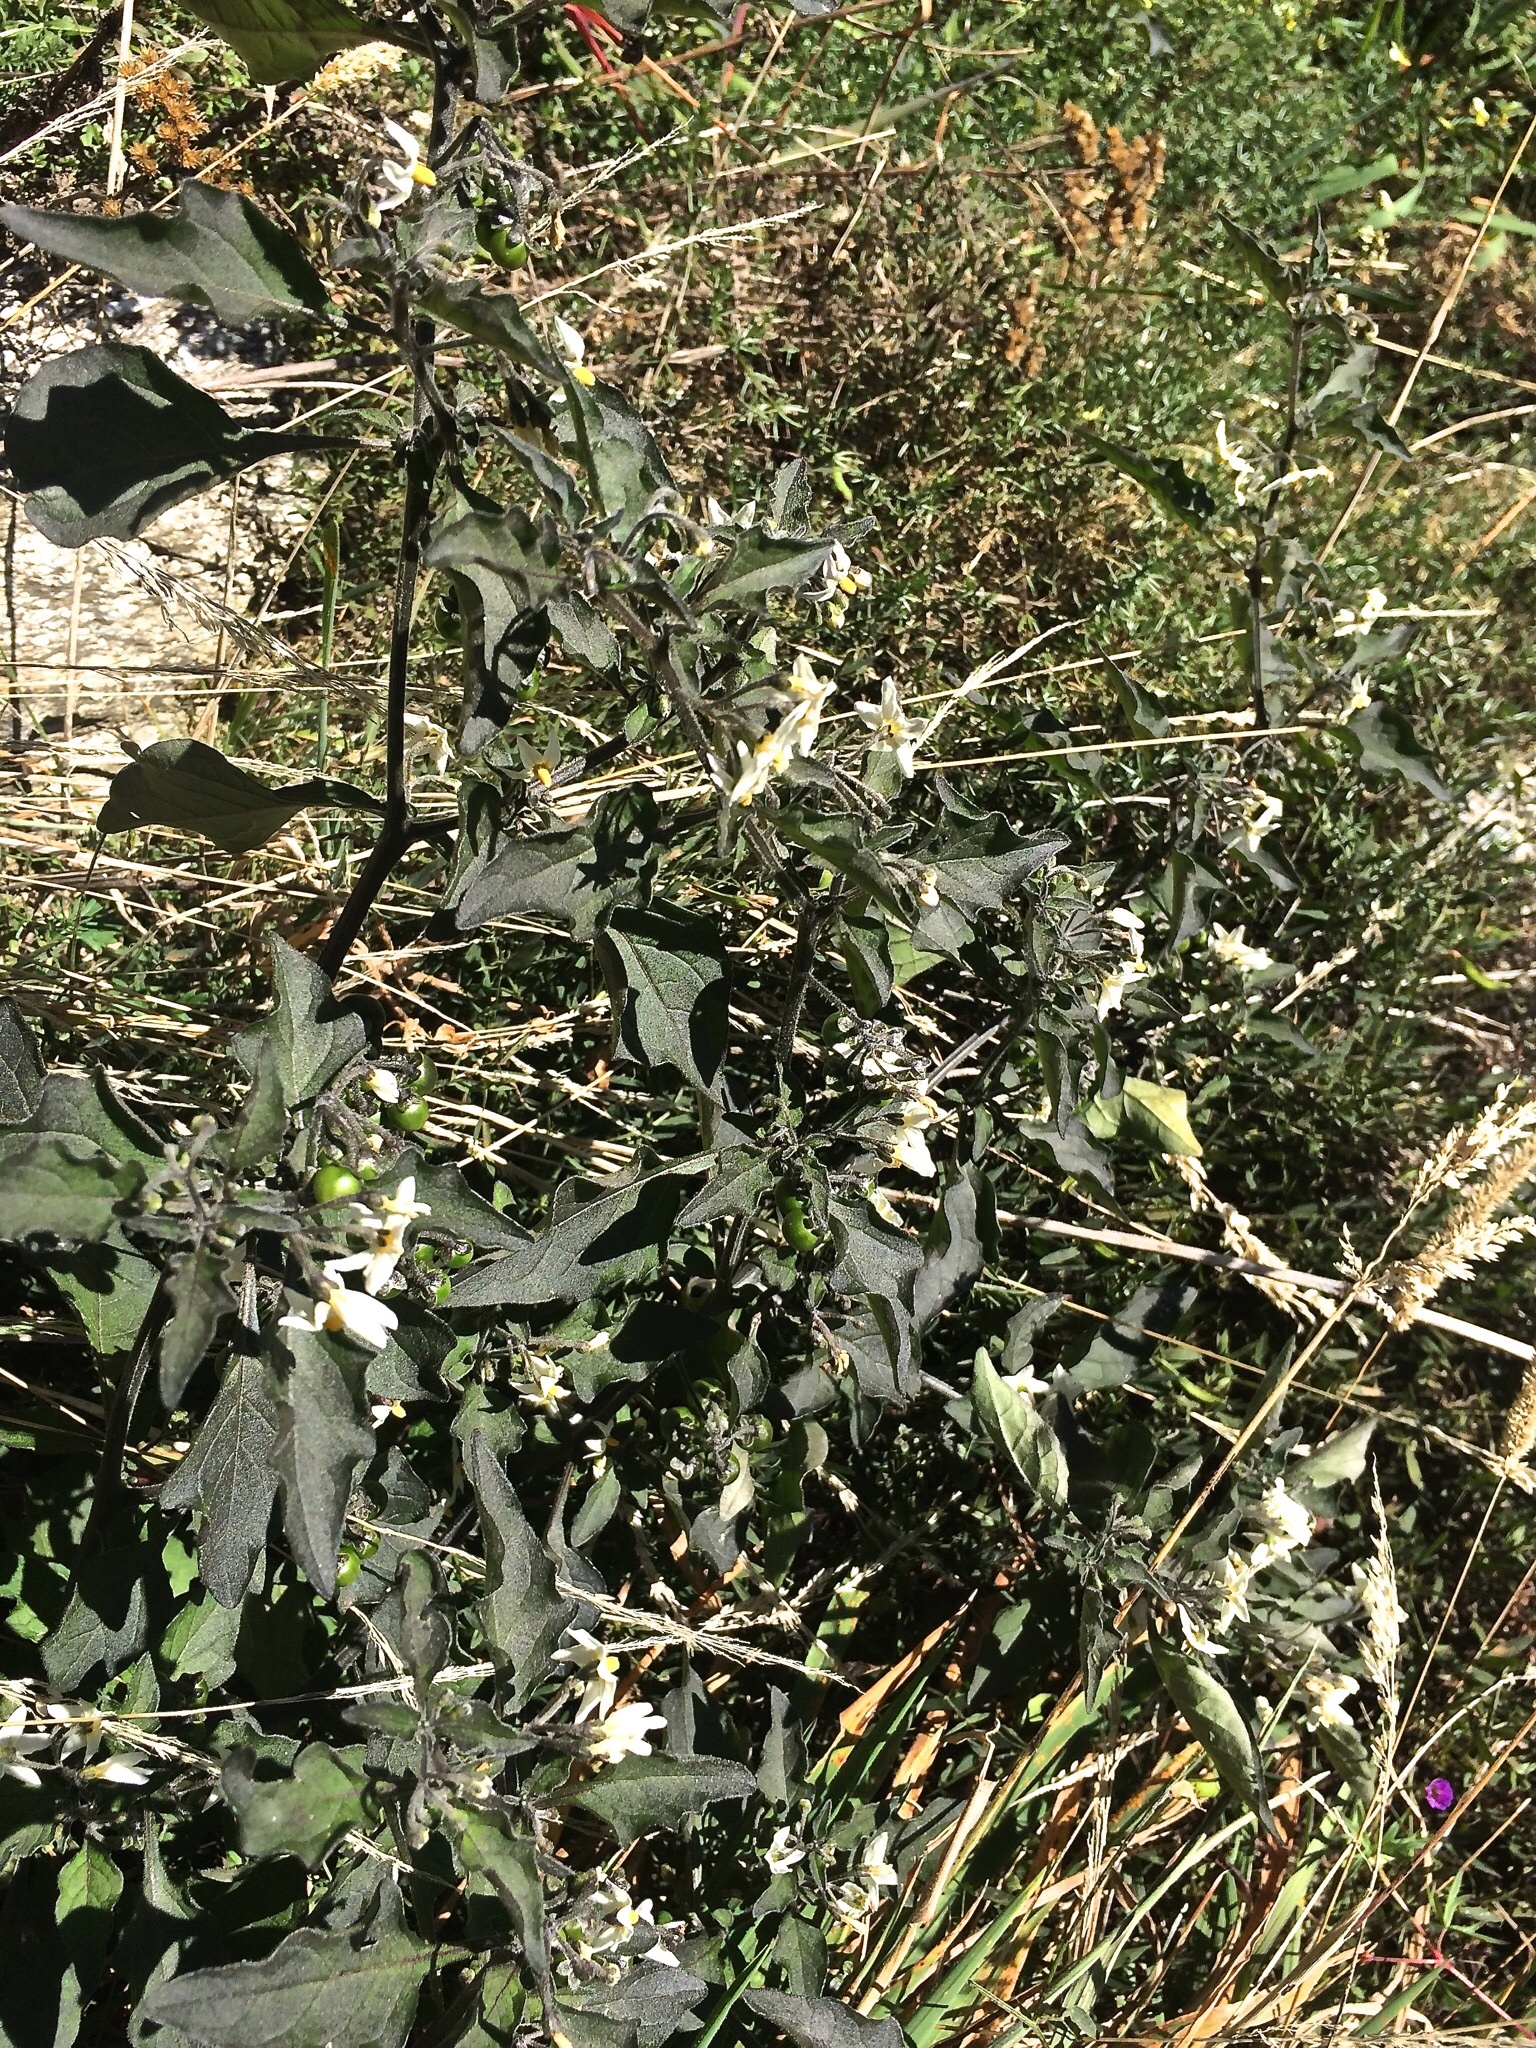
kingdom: Plantae
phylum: Tracheophyta
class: Magnoliopsida
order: Solanales
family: Solanaceae
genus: Solanum
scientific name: Solanum nigrum
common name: Black nightshade
